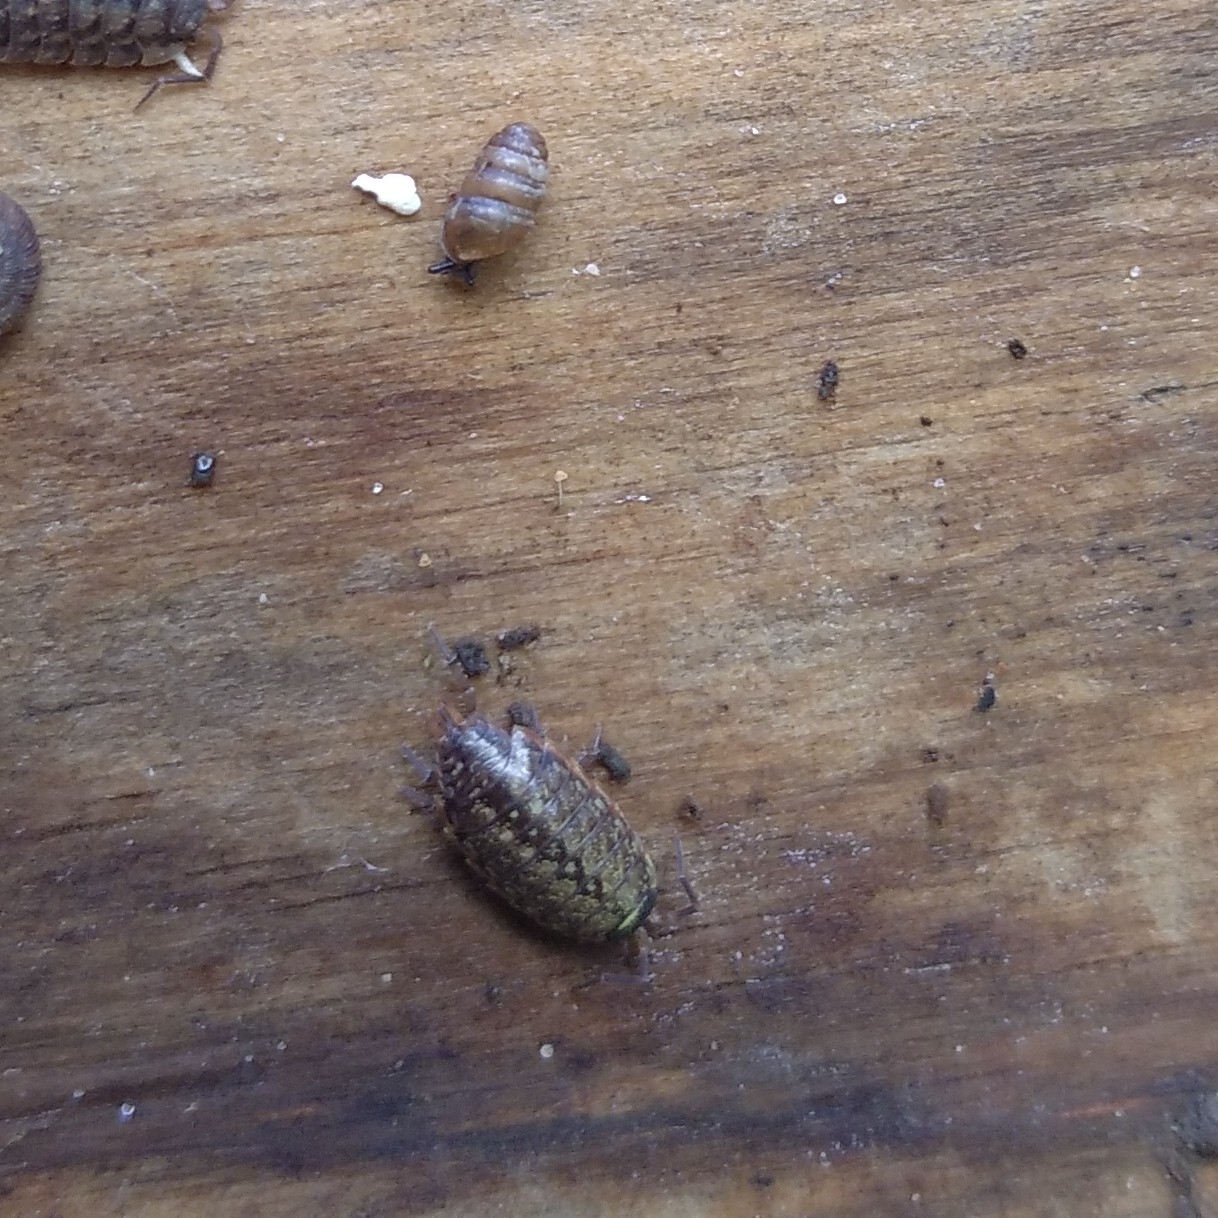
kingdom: Animalia
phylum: Arthropoda
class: Malacostraca
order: Isopoda
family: Philosciidae
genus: Philoscia
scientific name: Philoscia muscorum
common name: Common striped woodlouse
